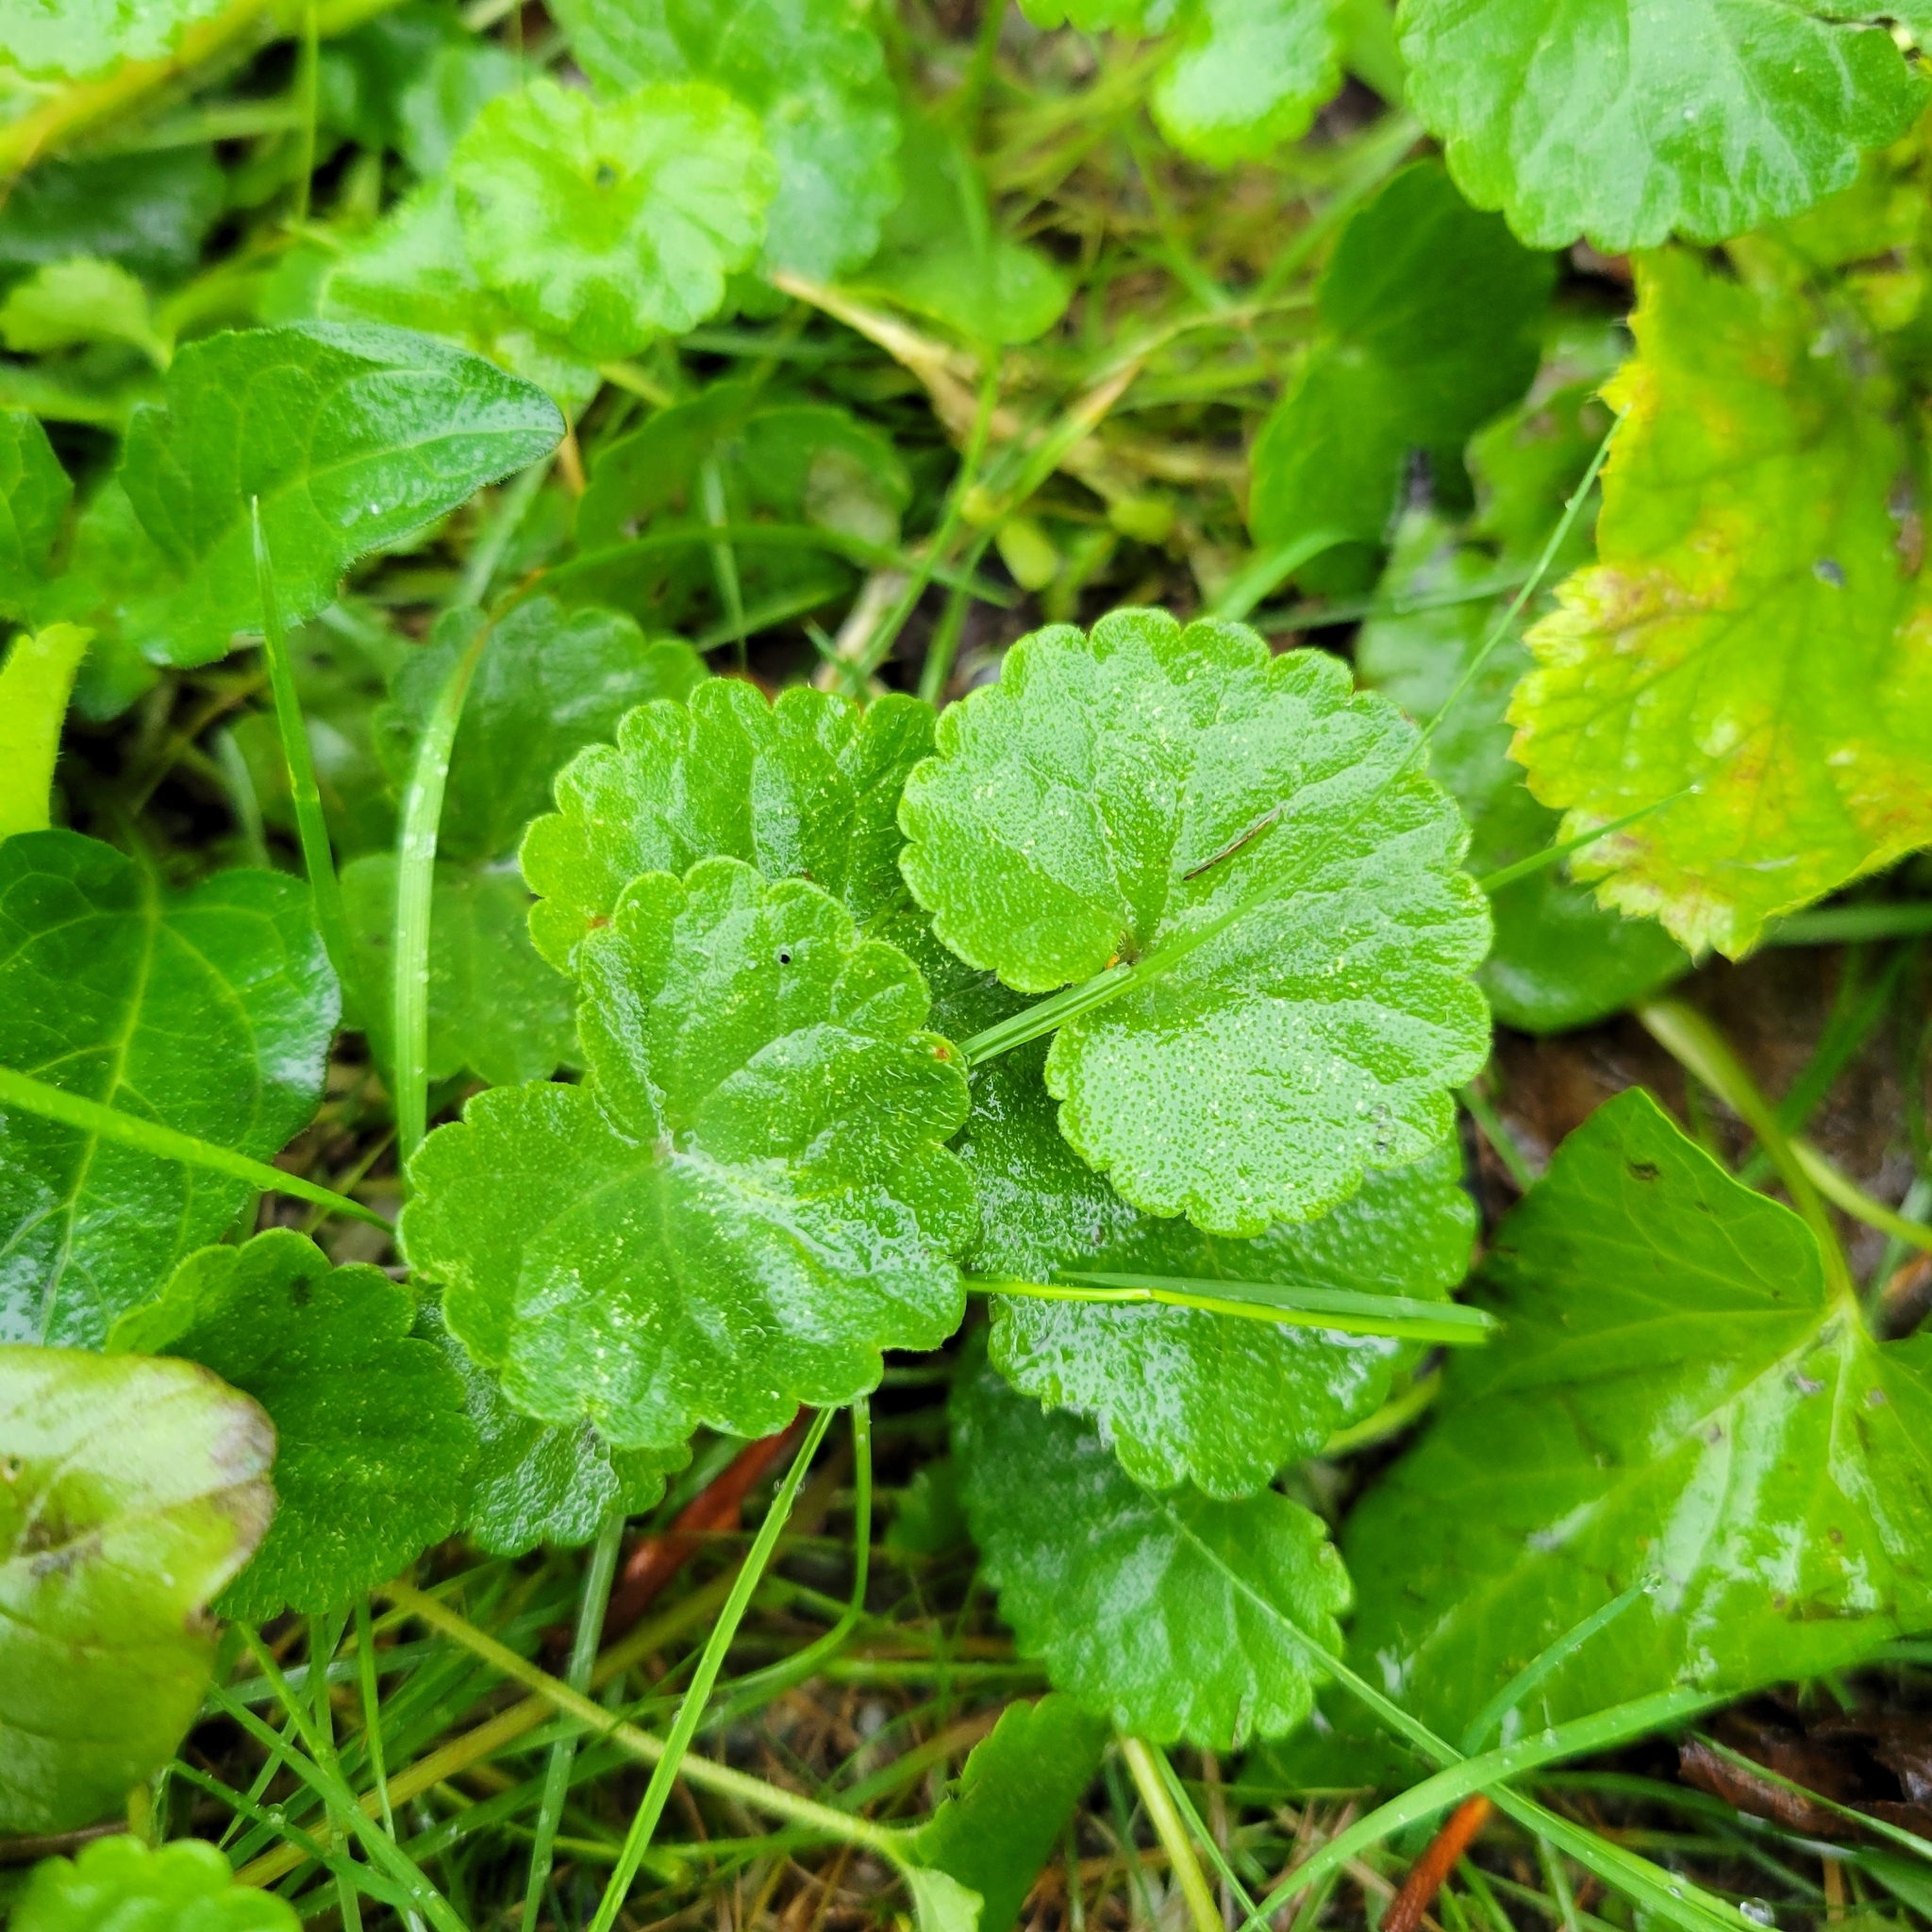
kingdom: Plantae
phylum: Tracheophyta
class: Magnoliopsida
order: Lamiales
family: Lamiaceae
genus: Glechoma
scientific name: Glechoma hederacea
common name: Ground ivy
